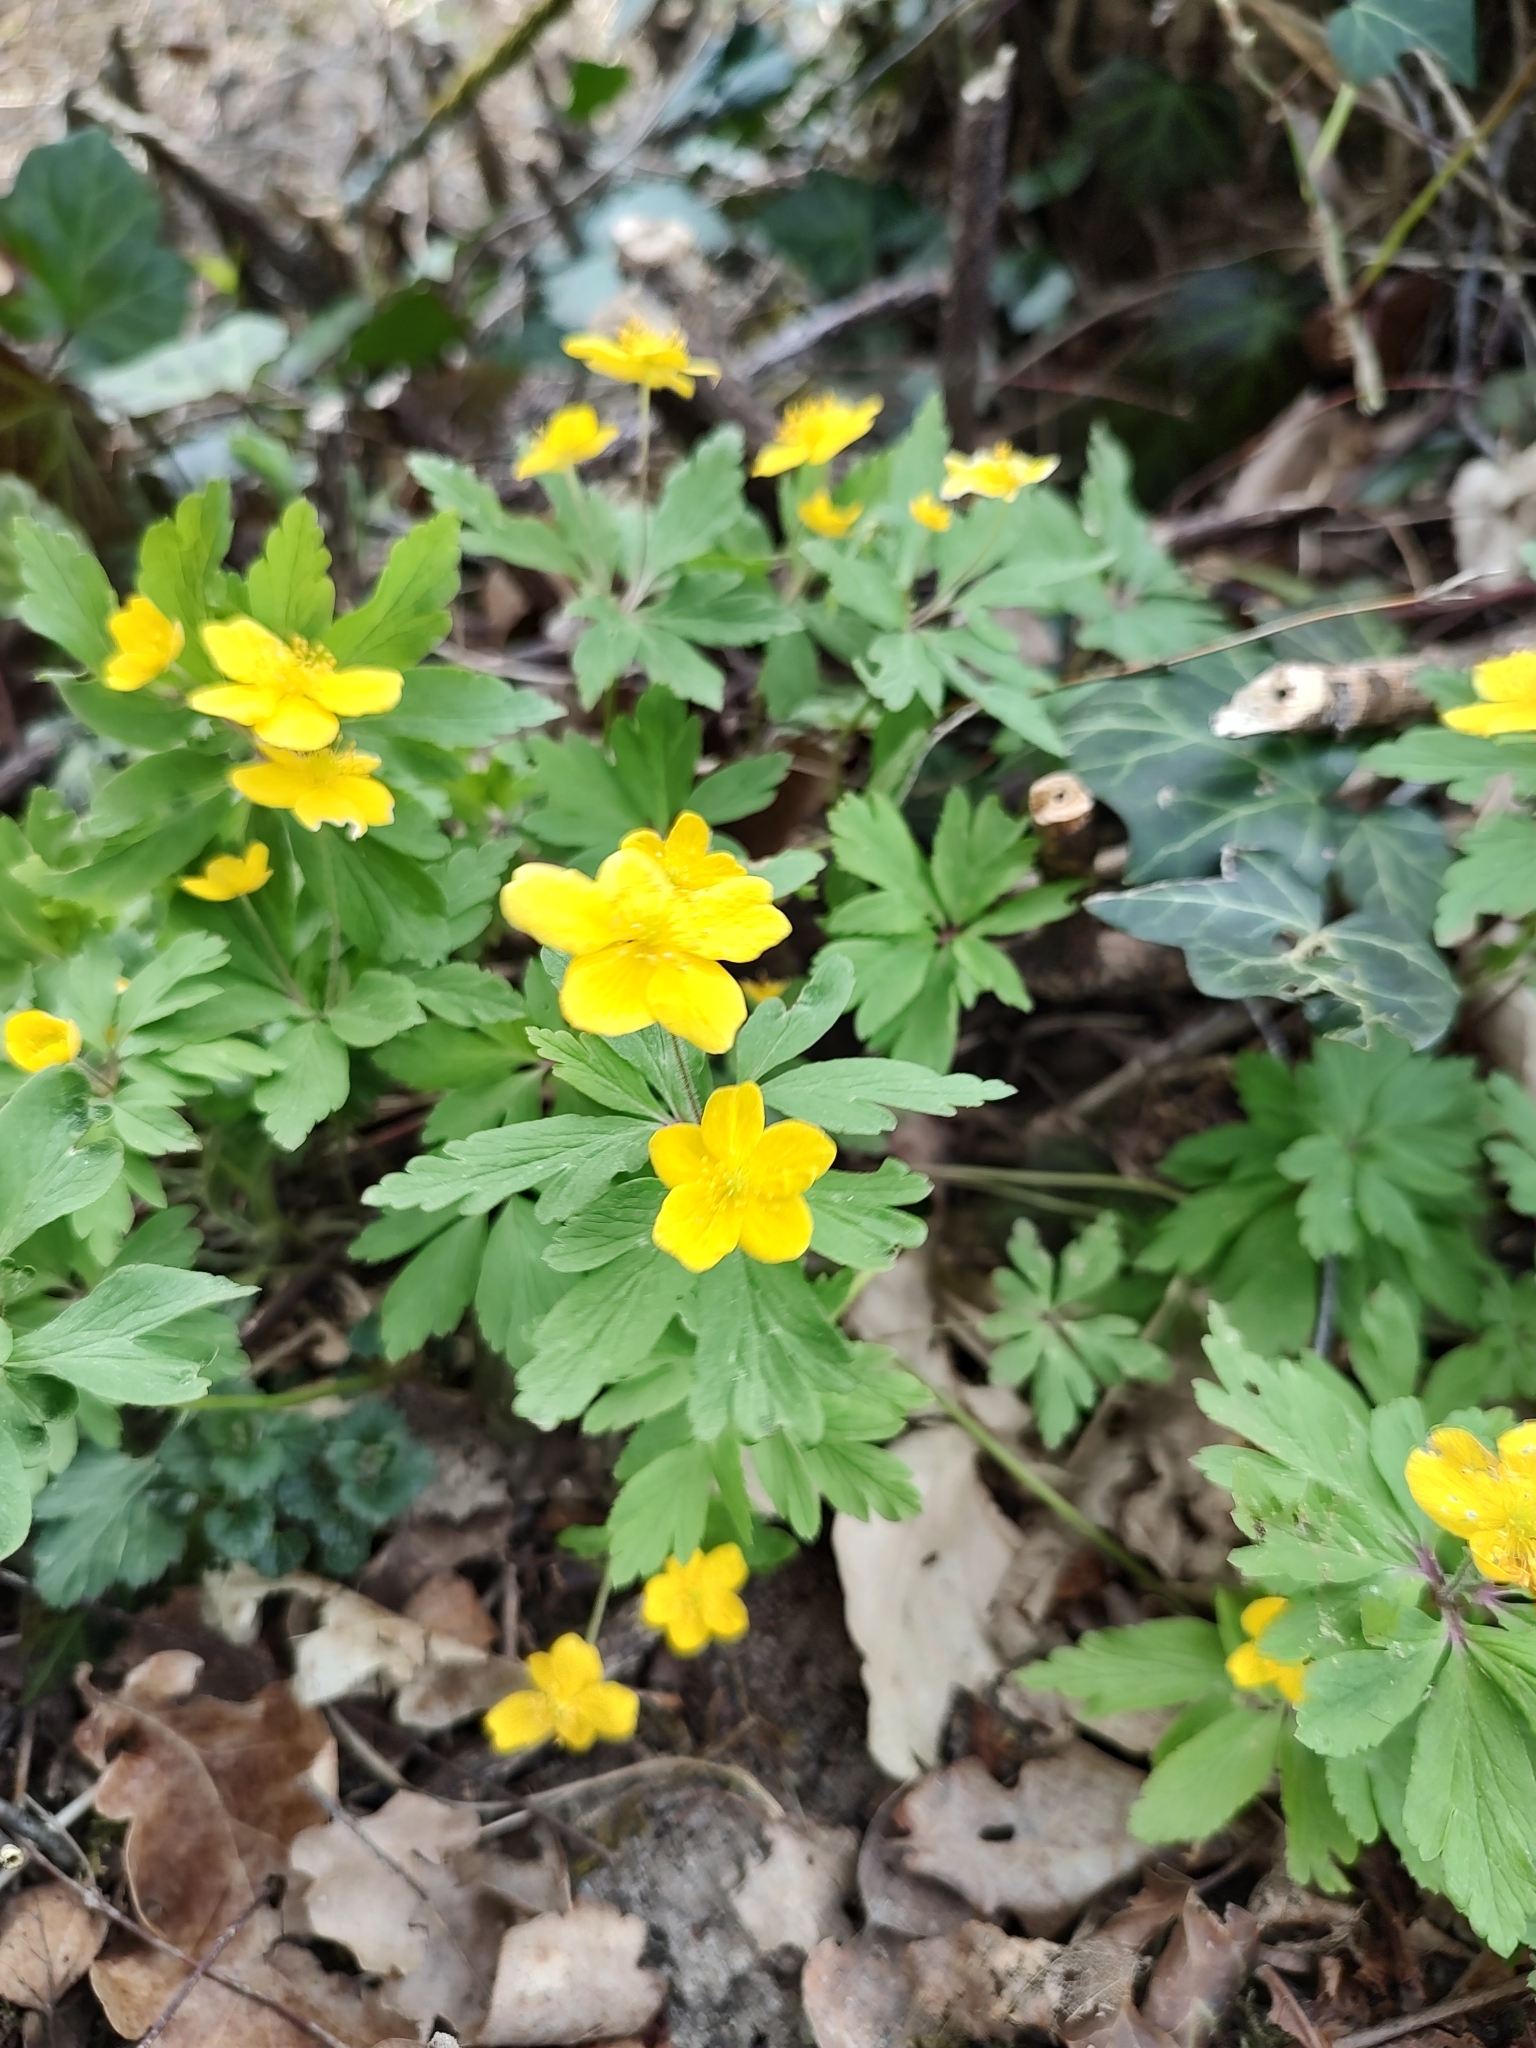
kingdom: Plantae
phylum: Tracheophyta
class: Magnoliopsida
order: Ranunculales
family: Ranunculaceae
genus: Anemone
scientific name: Anemone ranunculoides
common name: Yellow anemone
